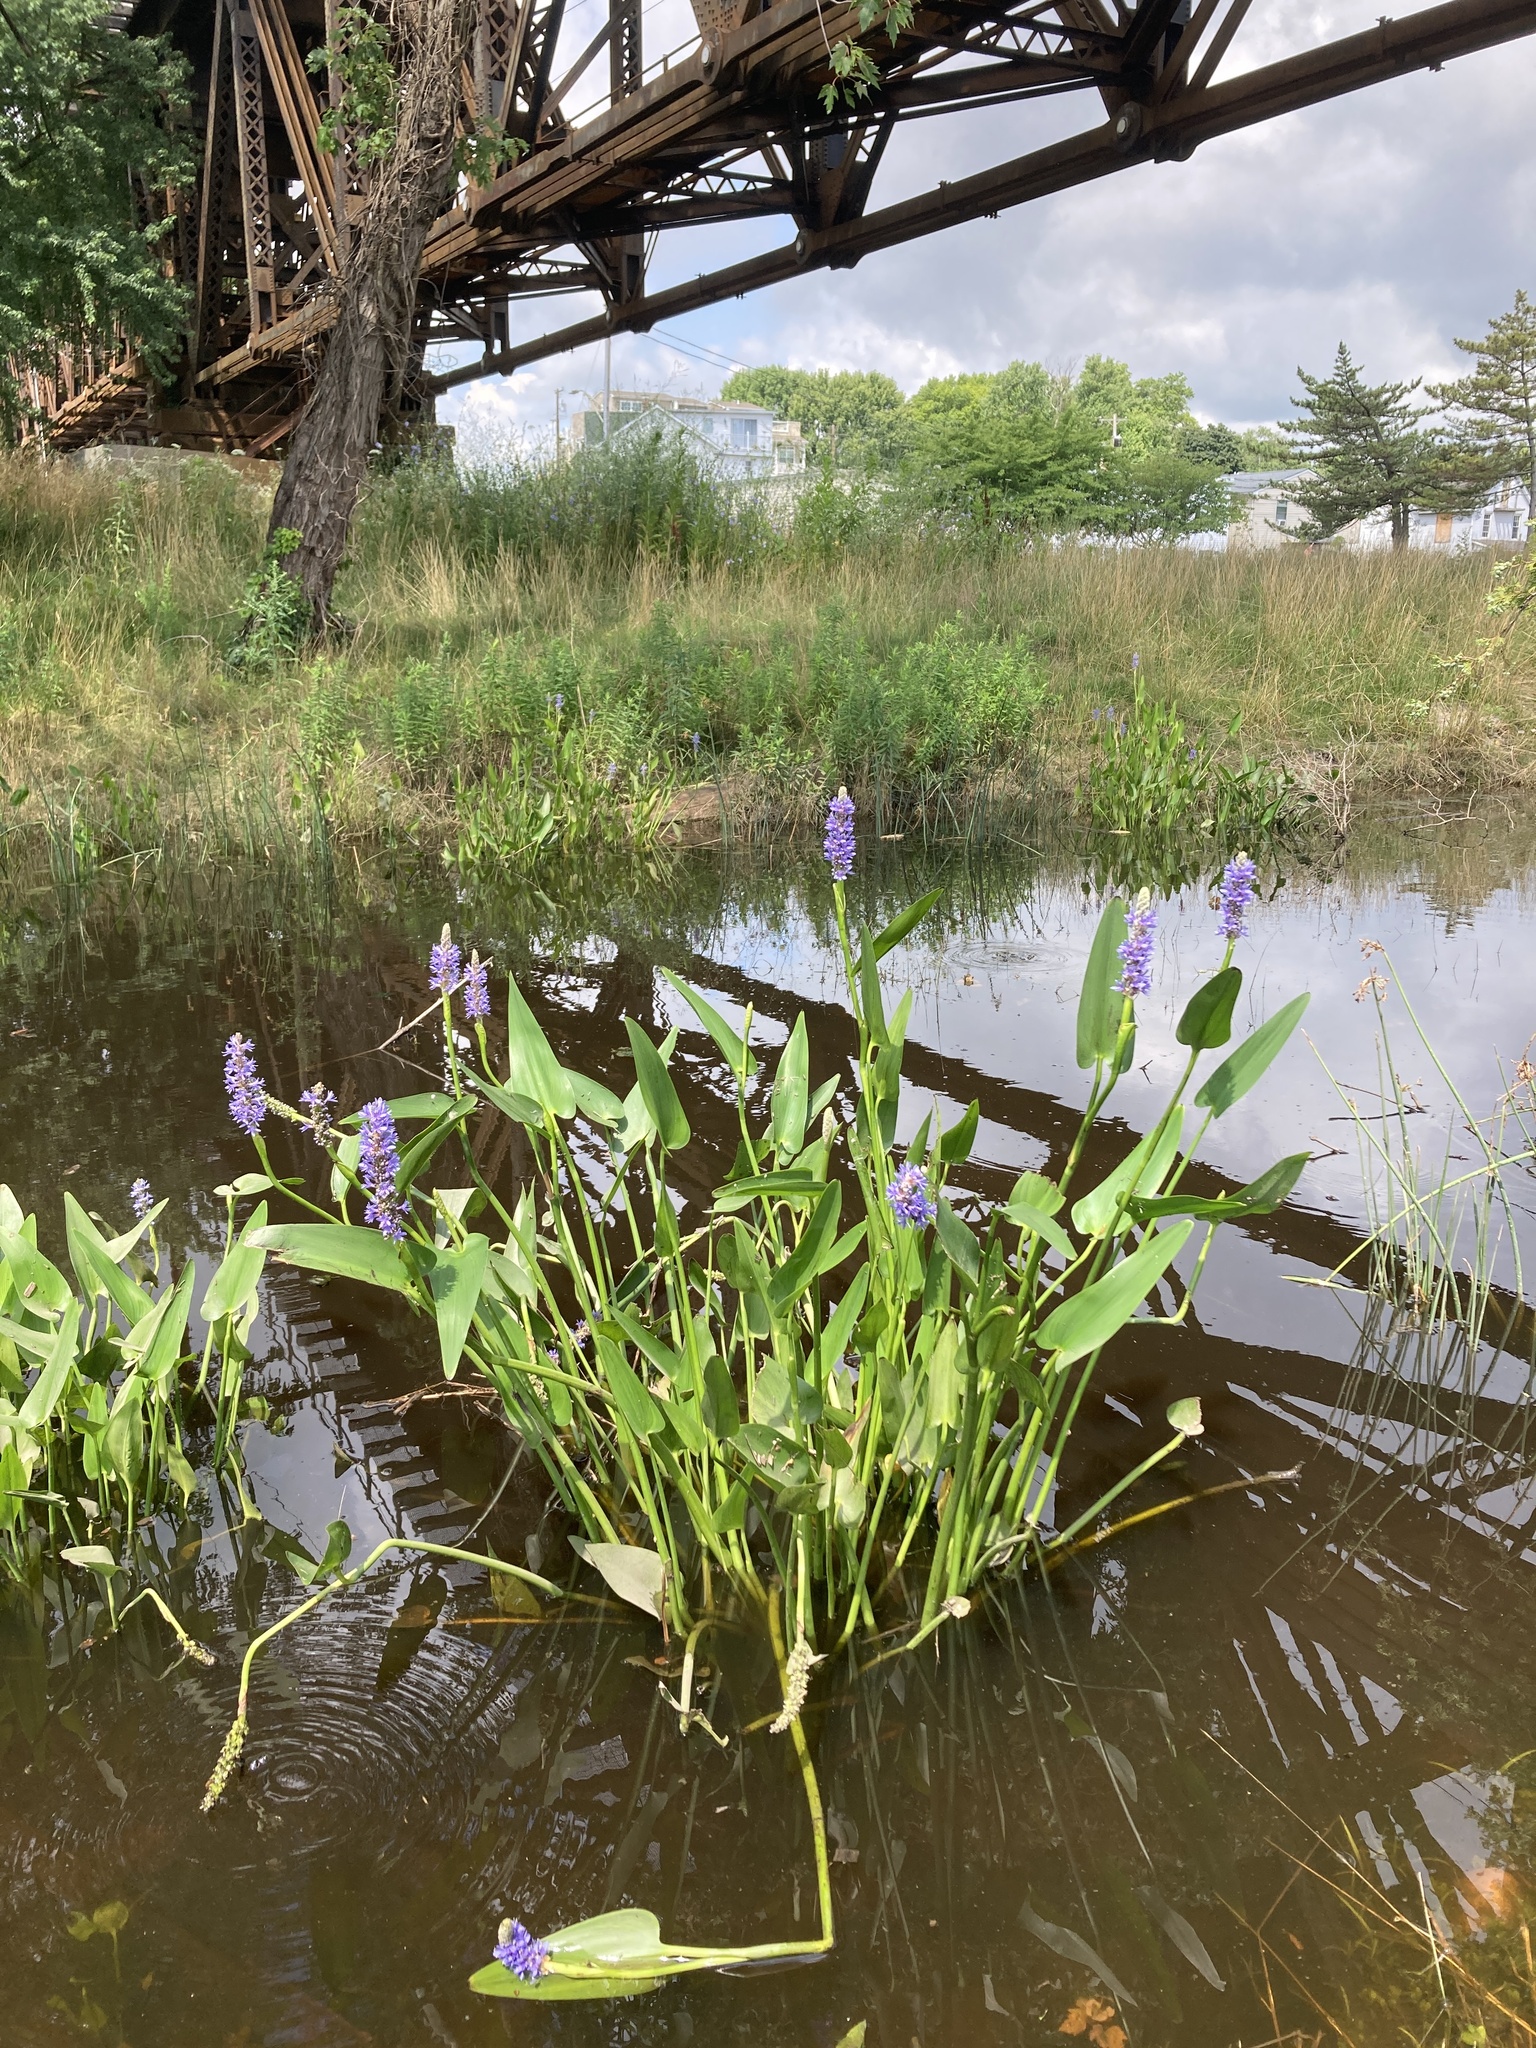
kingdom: Plantae
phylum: Tracheophyta
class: Liliopsida
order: Commelinales
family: Pontederiaceae
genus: Pontederia
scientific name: Pontederia cordata
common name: Pickerelweed
